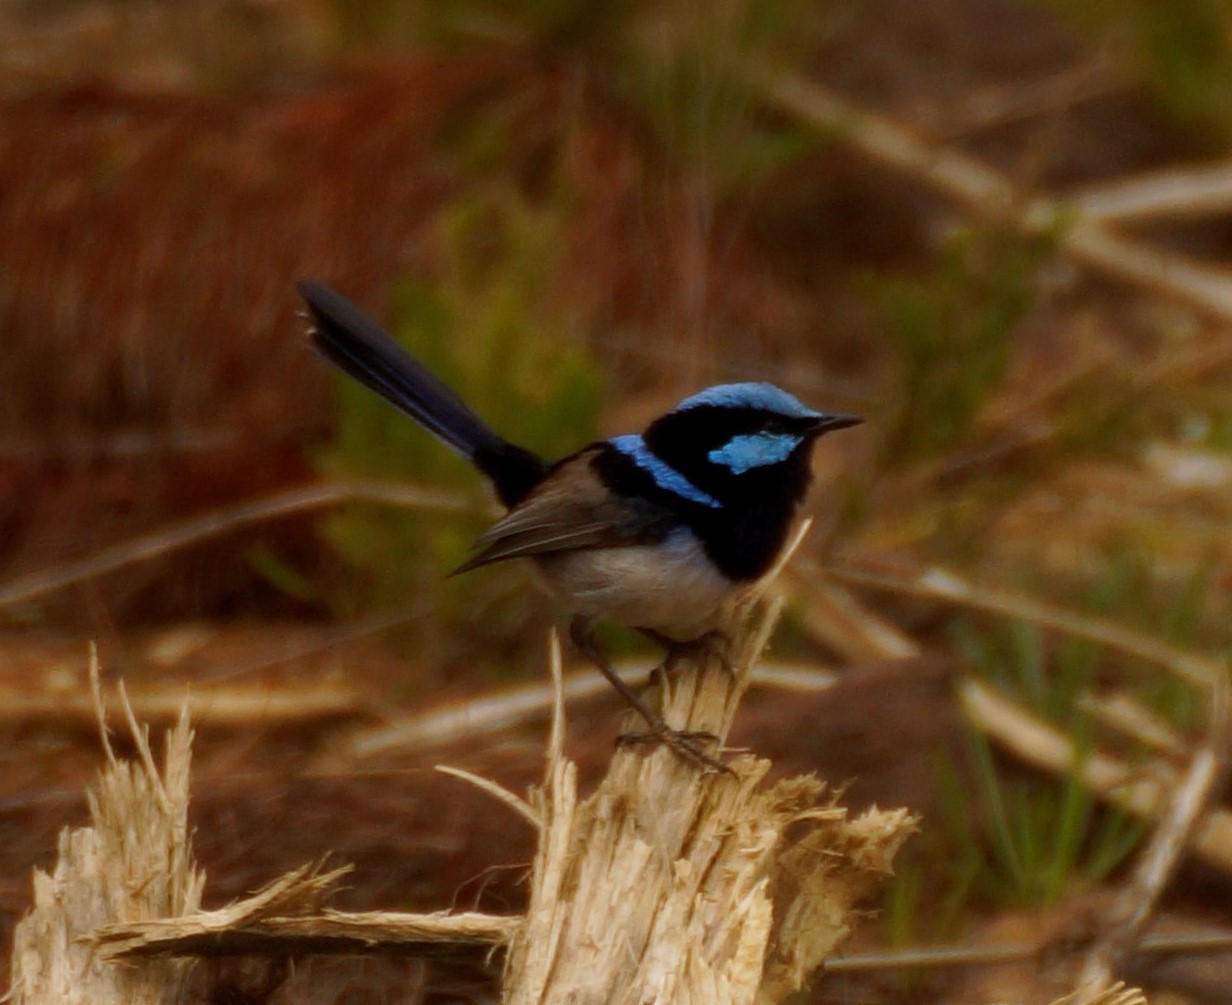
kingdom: Animalia
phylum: Chordata
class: Aves
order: Passeriformes
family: Maluridae
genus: Malurus
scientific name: Malurus cyaneus
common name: Superb fairywren
